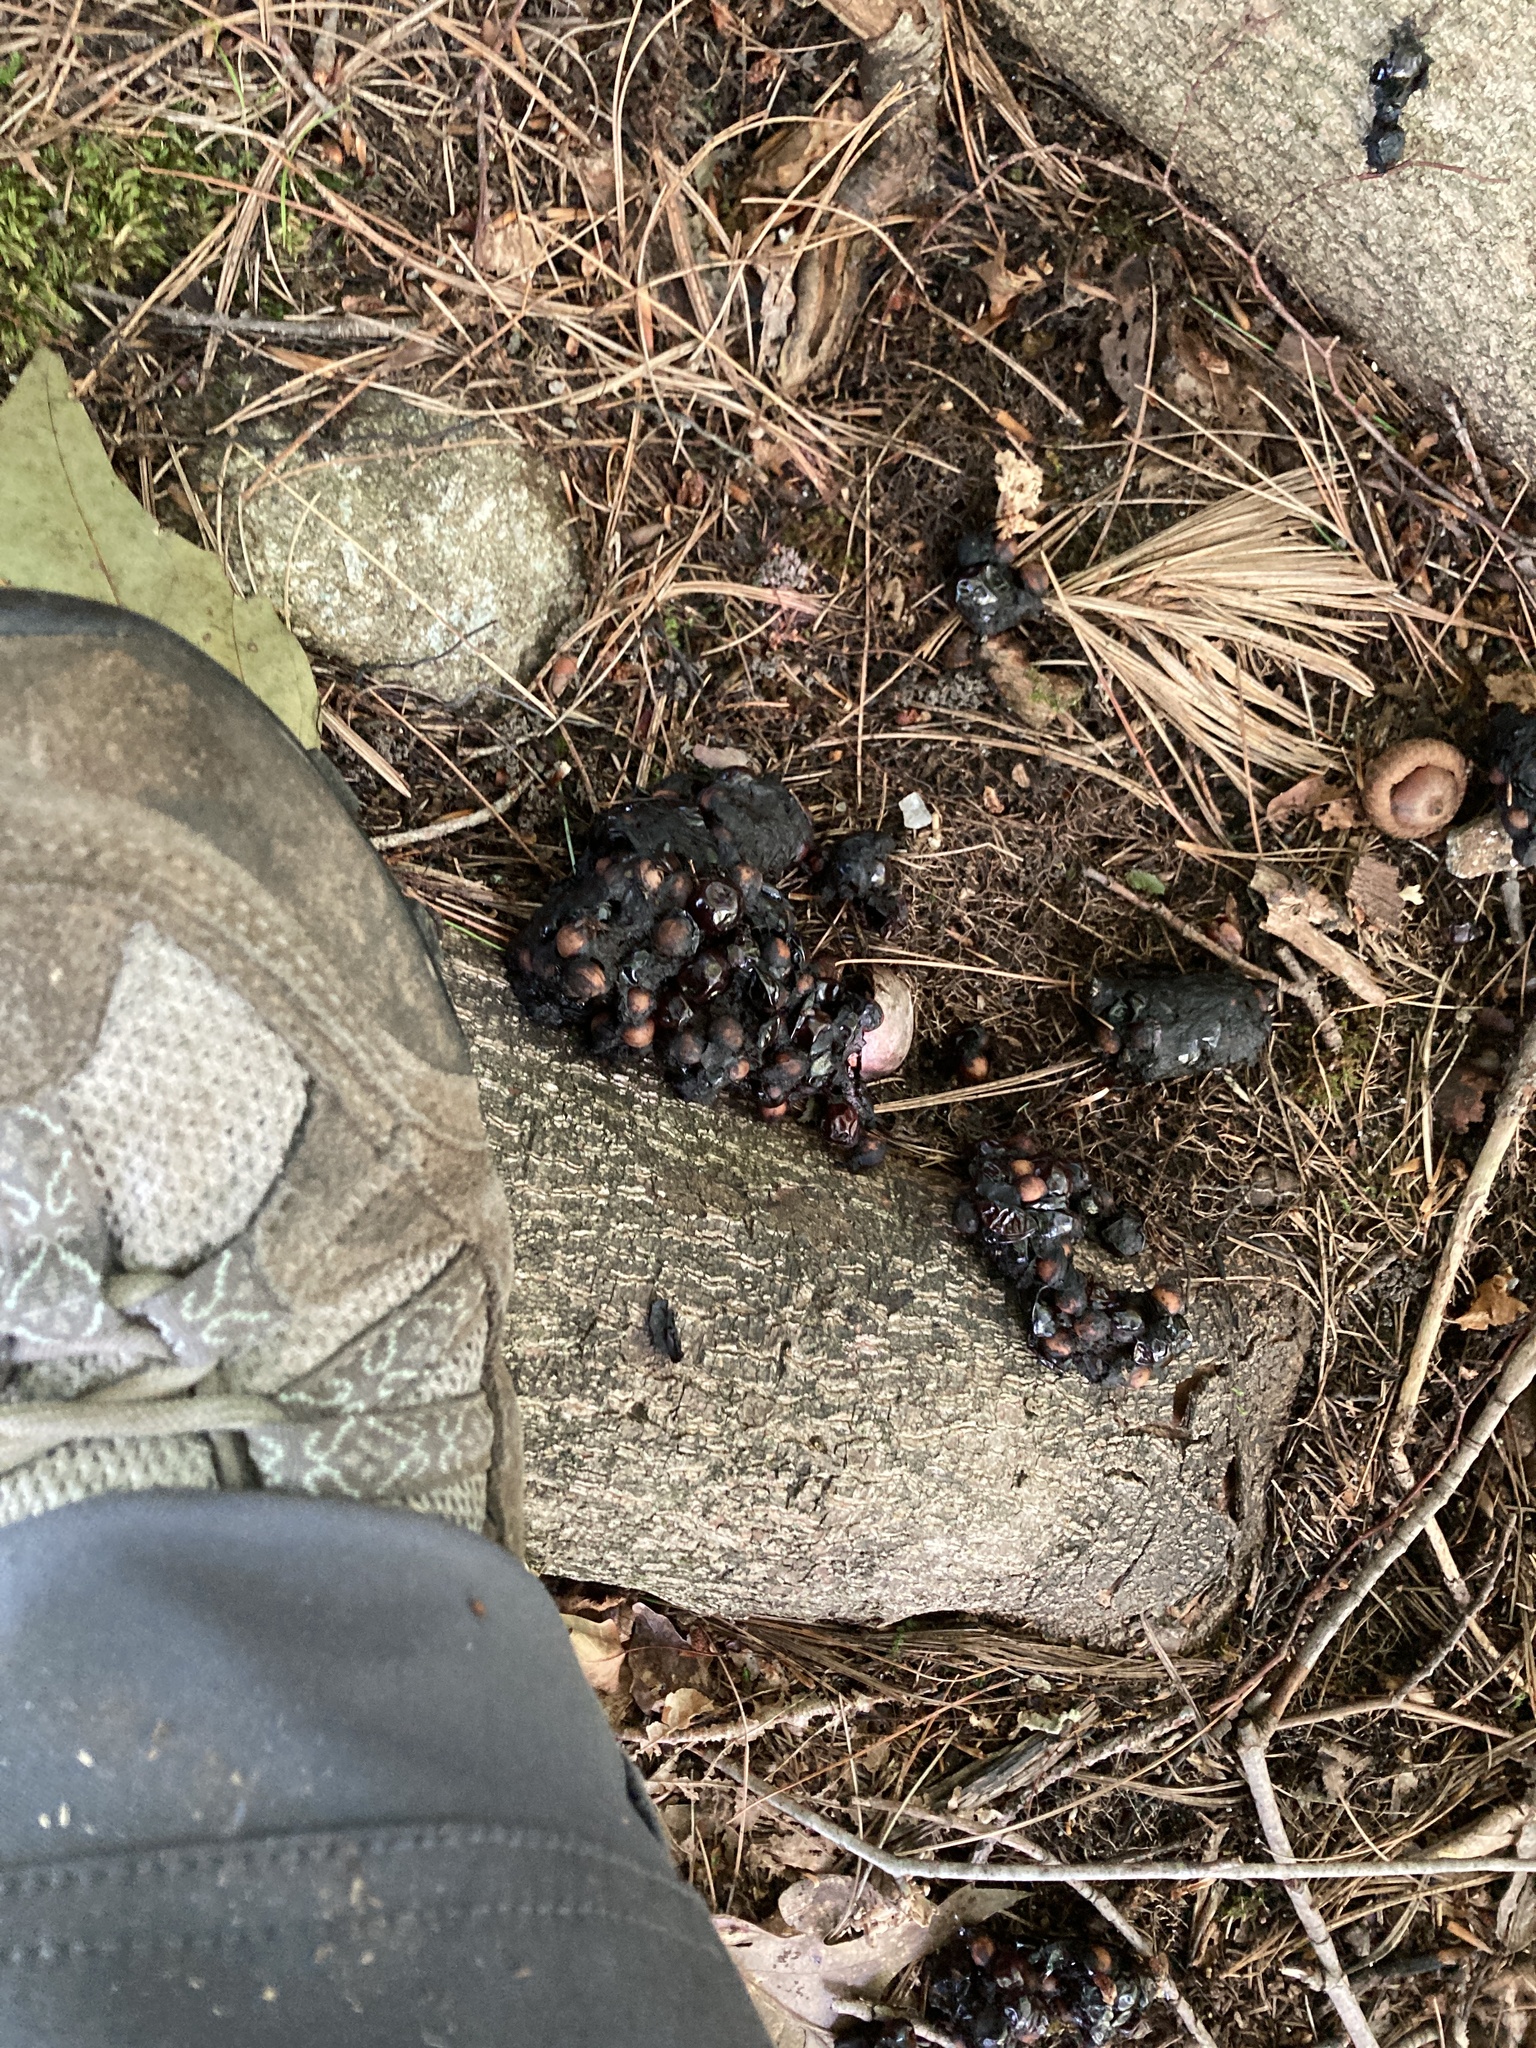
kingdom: Animalia
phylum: Chordata
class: Mammalia
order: Carnivora
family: Ursidae
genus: Ursus
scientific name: Ursus americanus
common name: American black bear
